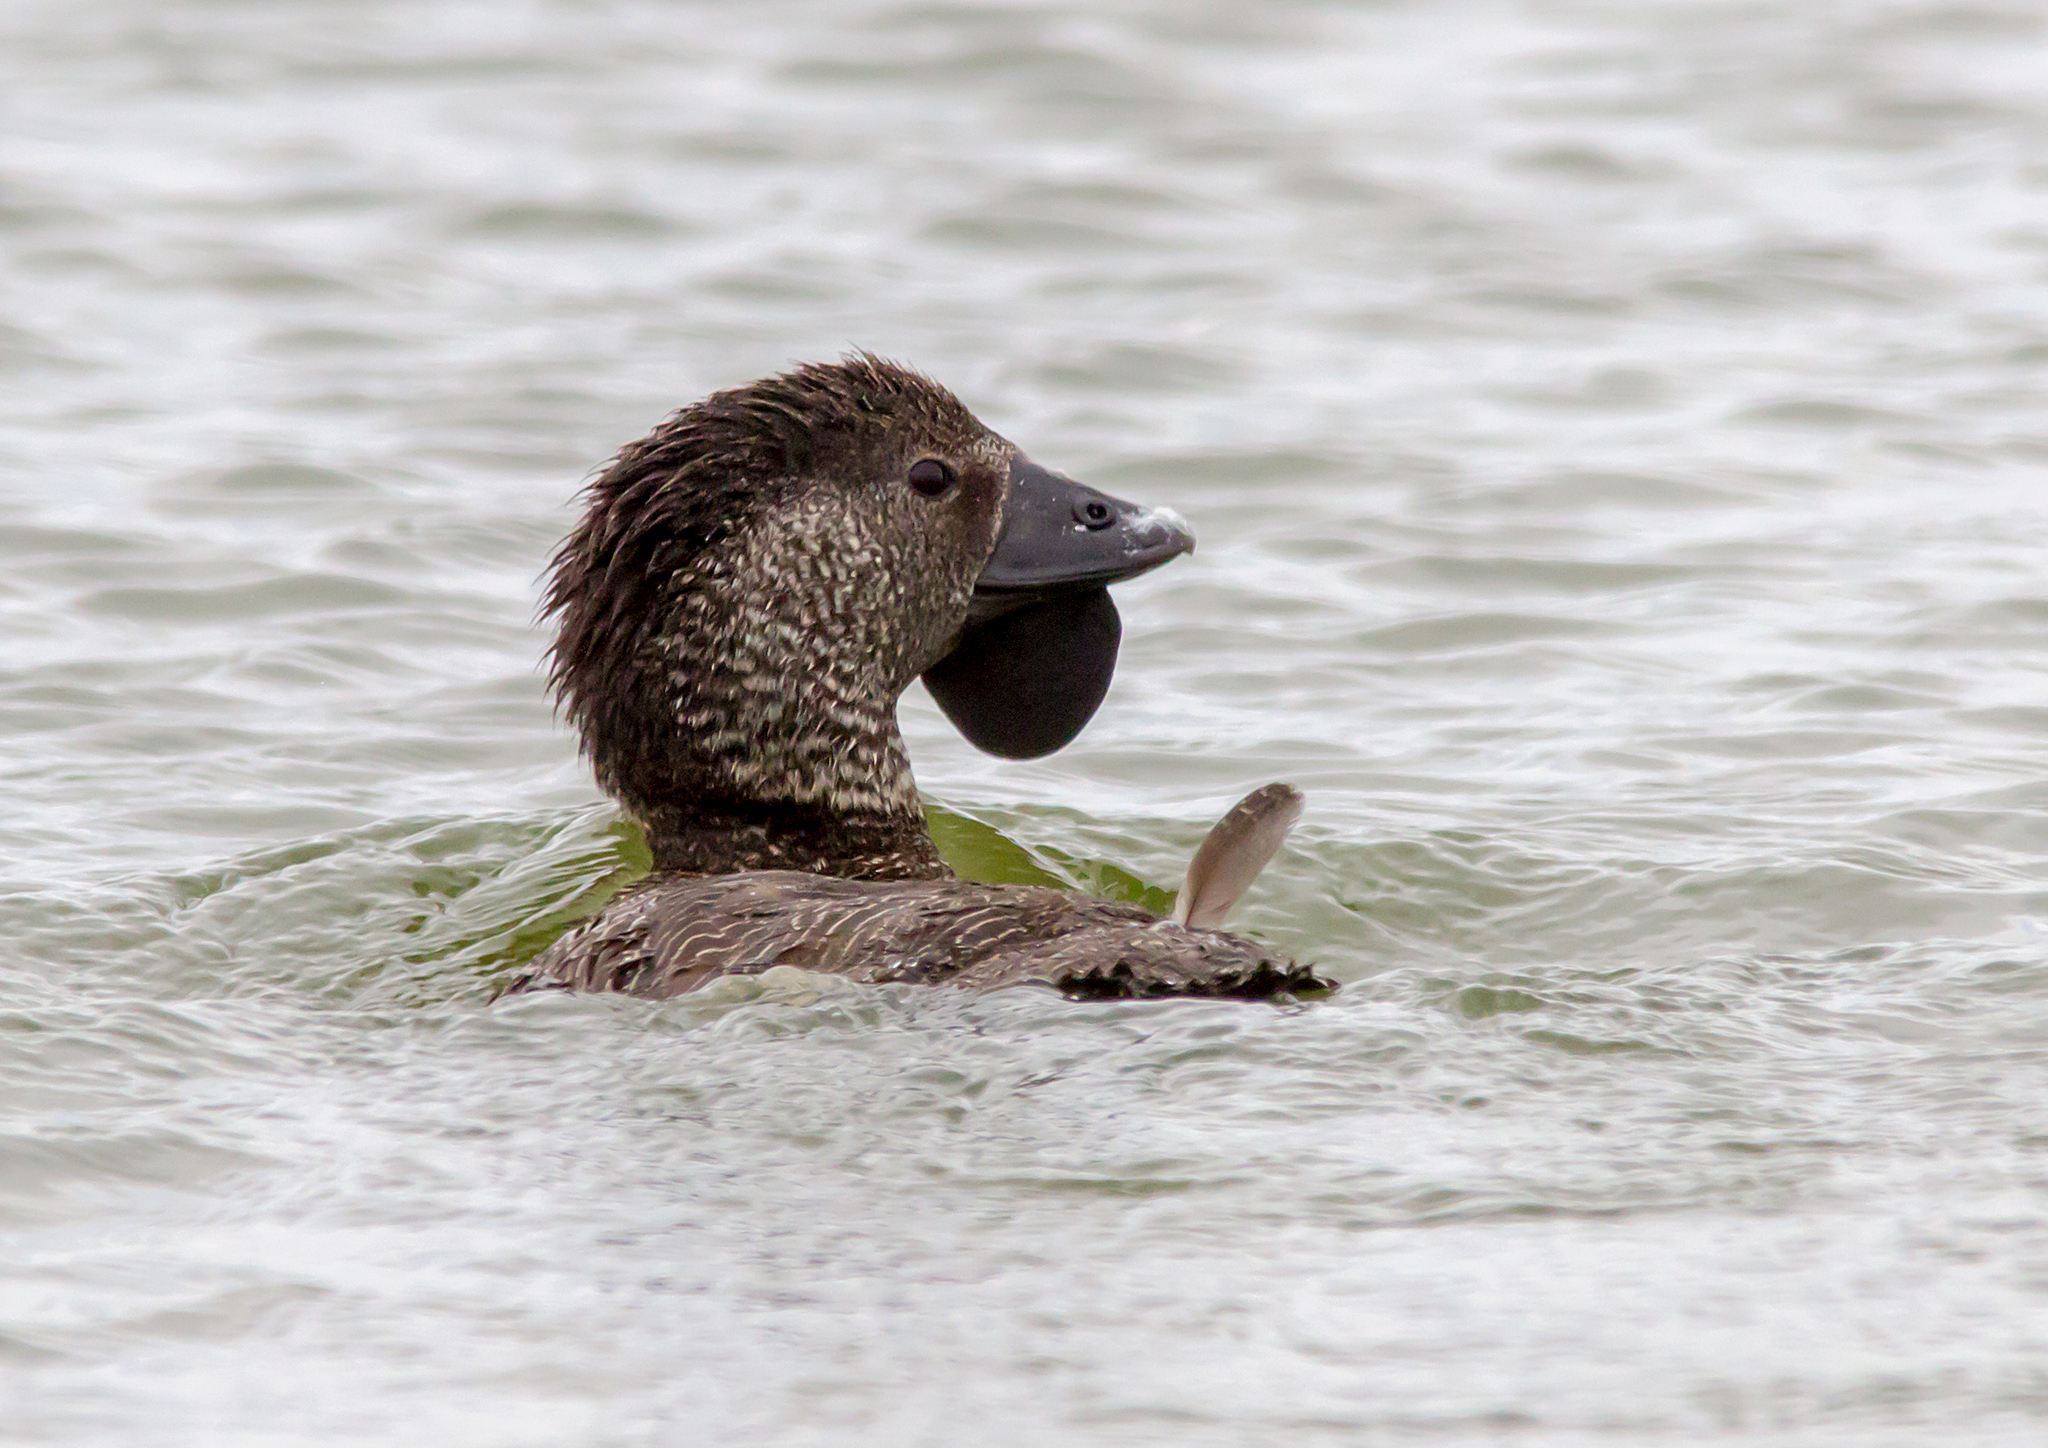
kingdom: Animalia
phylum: Chordata
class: Aves
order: Anseriformes
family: Anatidae
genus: Biziura
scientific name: Biziura lobata
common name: Musk duck
